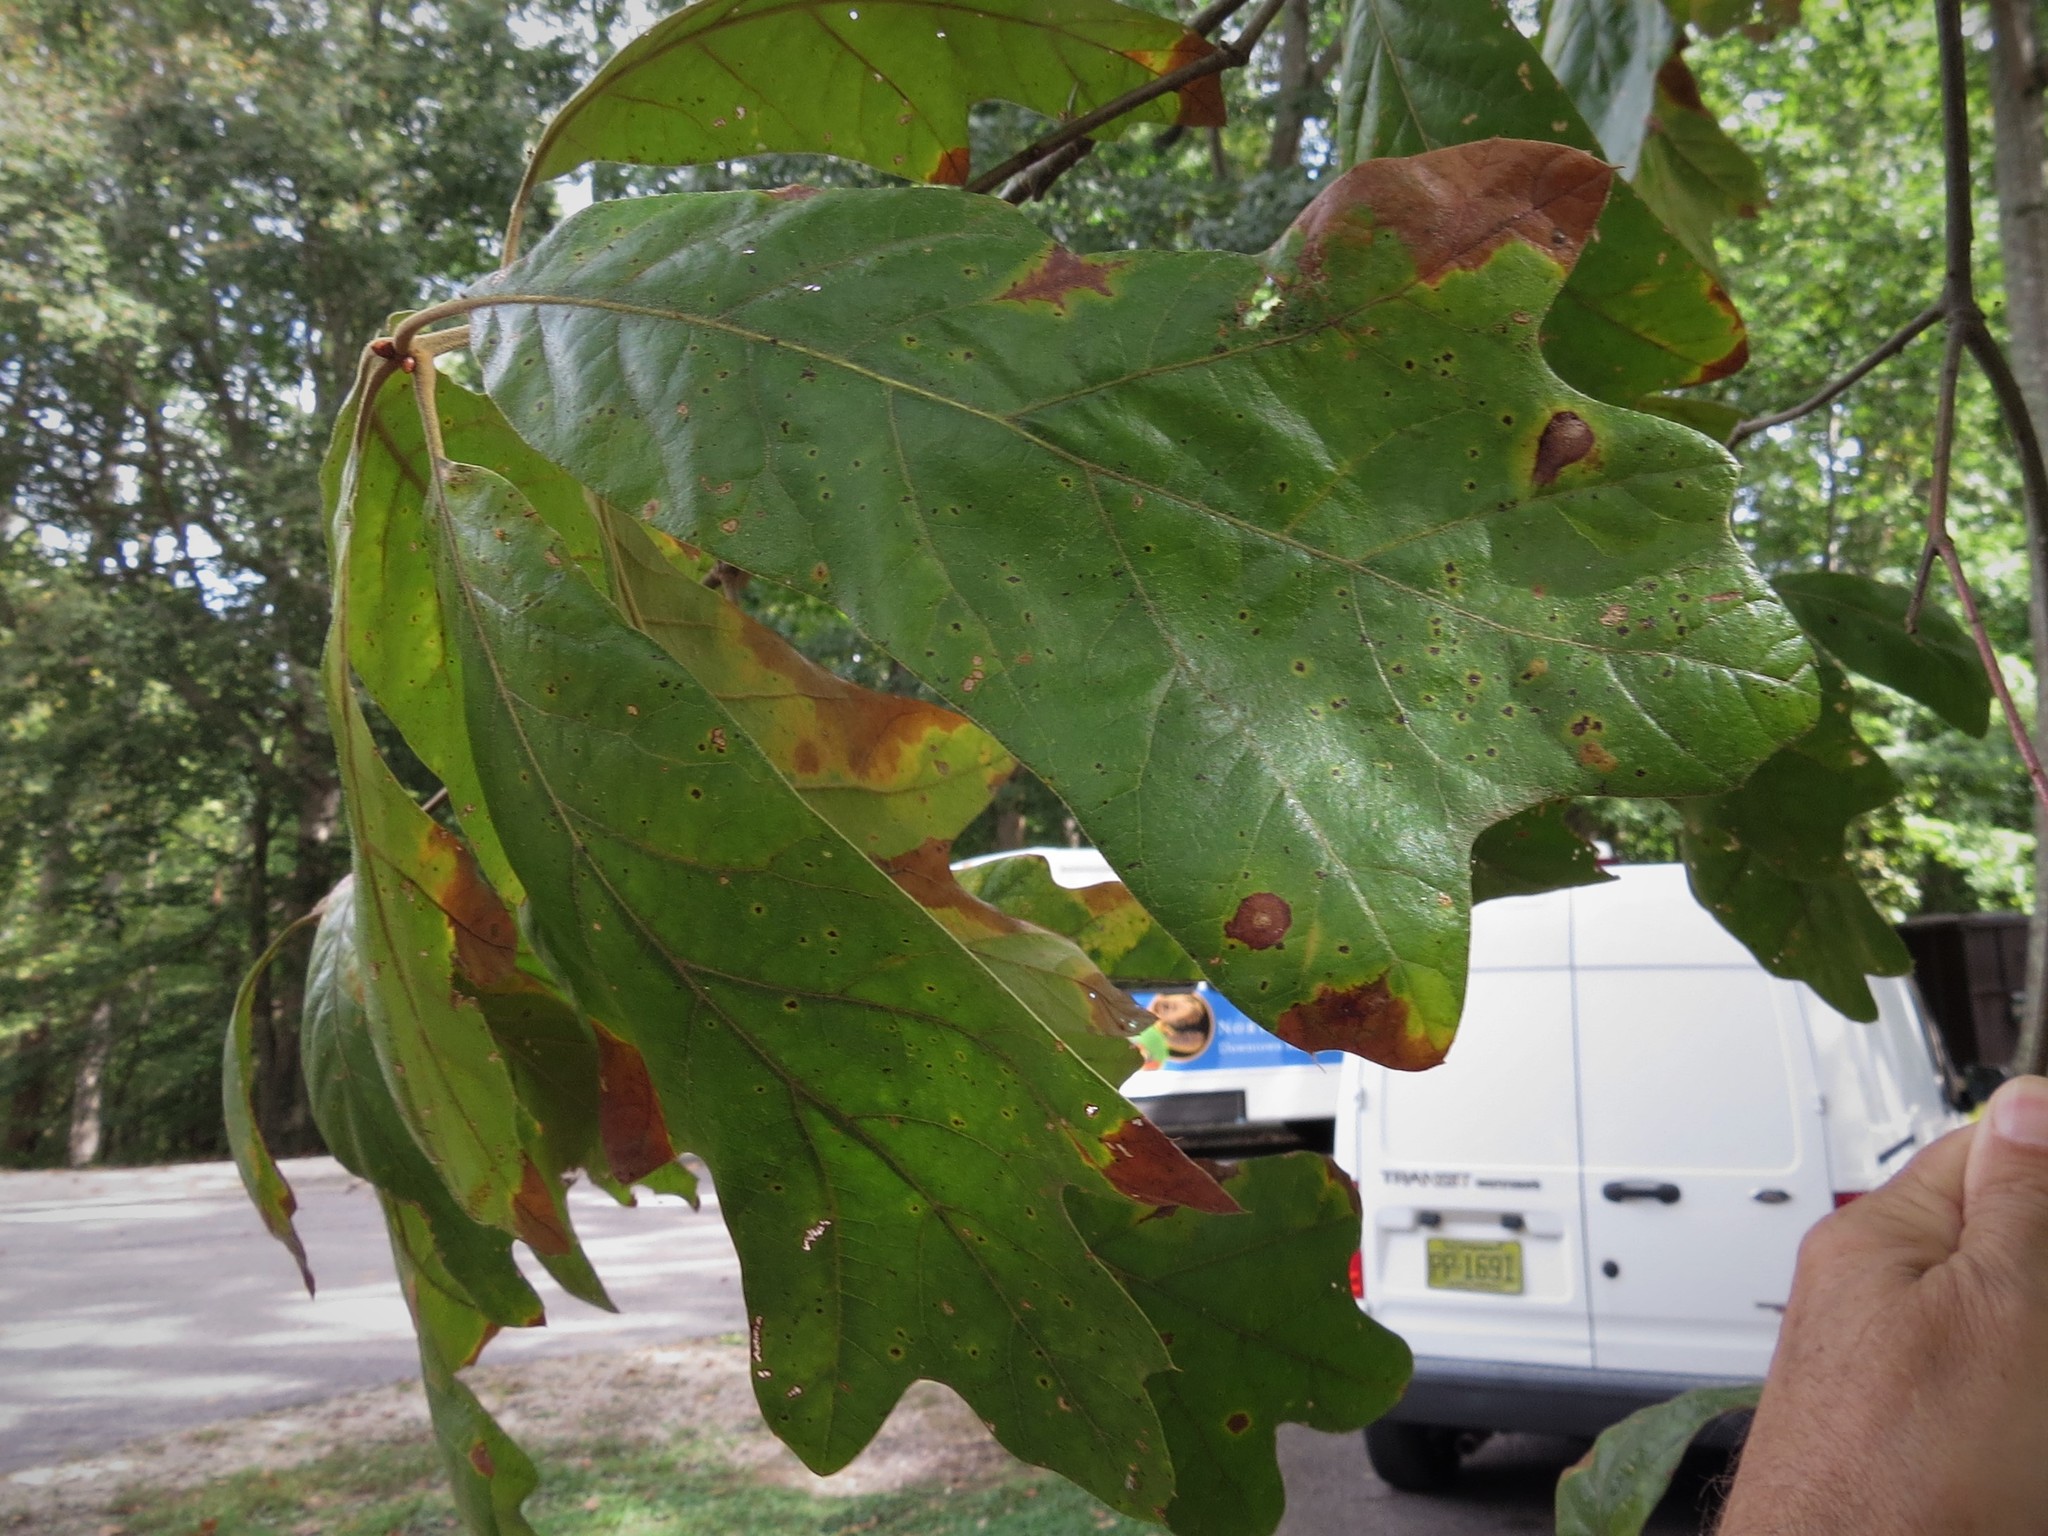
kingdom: Plantae
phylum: Tracheophyta
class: Magnoliopsida
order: Fagales
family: Fagaceae
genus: Quercus
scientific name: Quercus stellata
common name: Post oak
